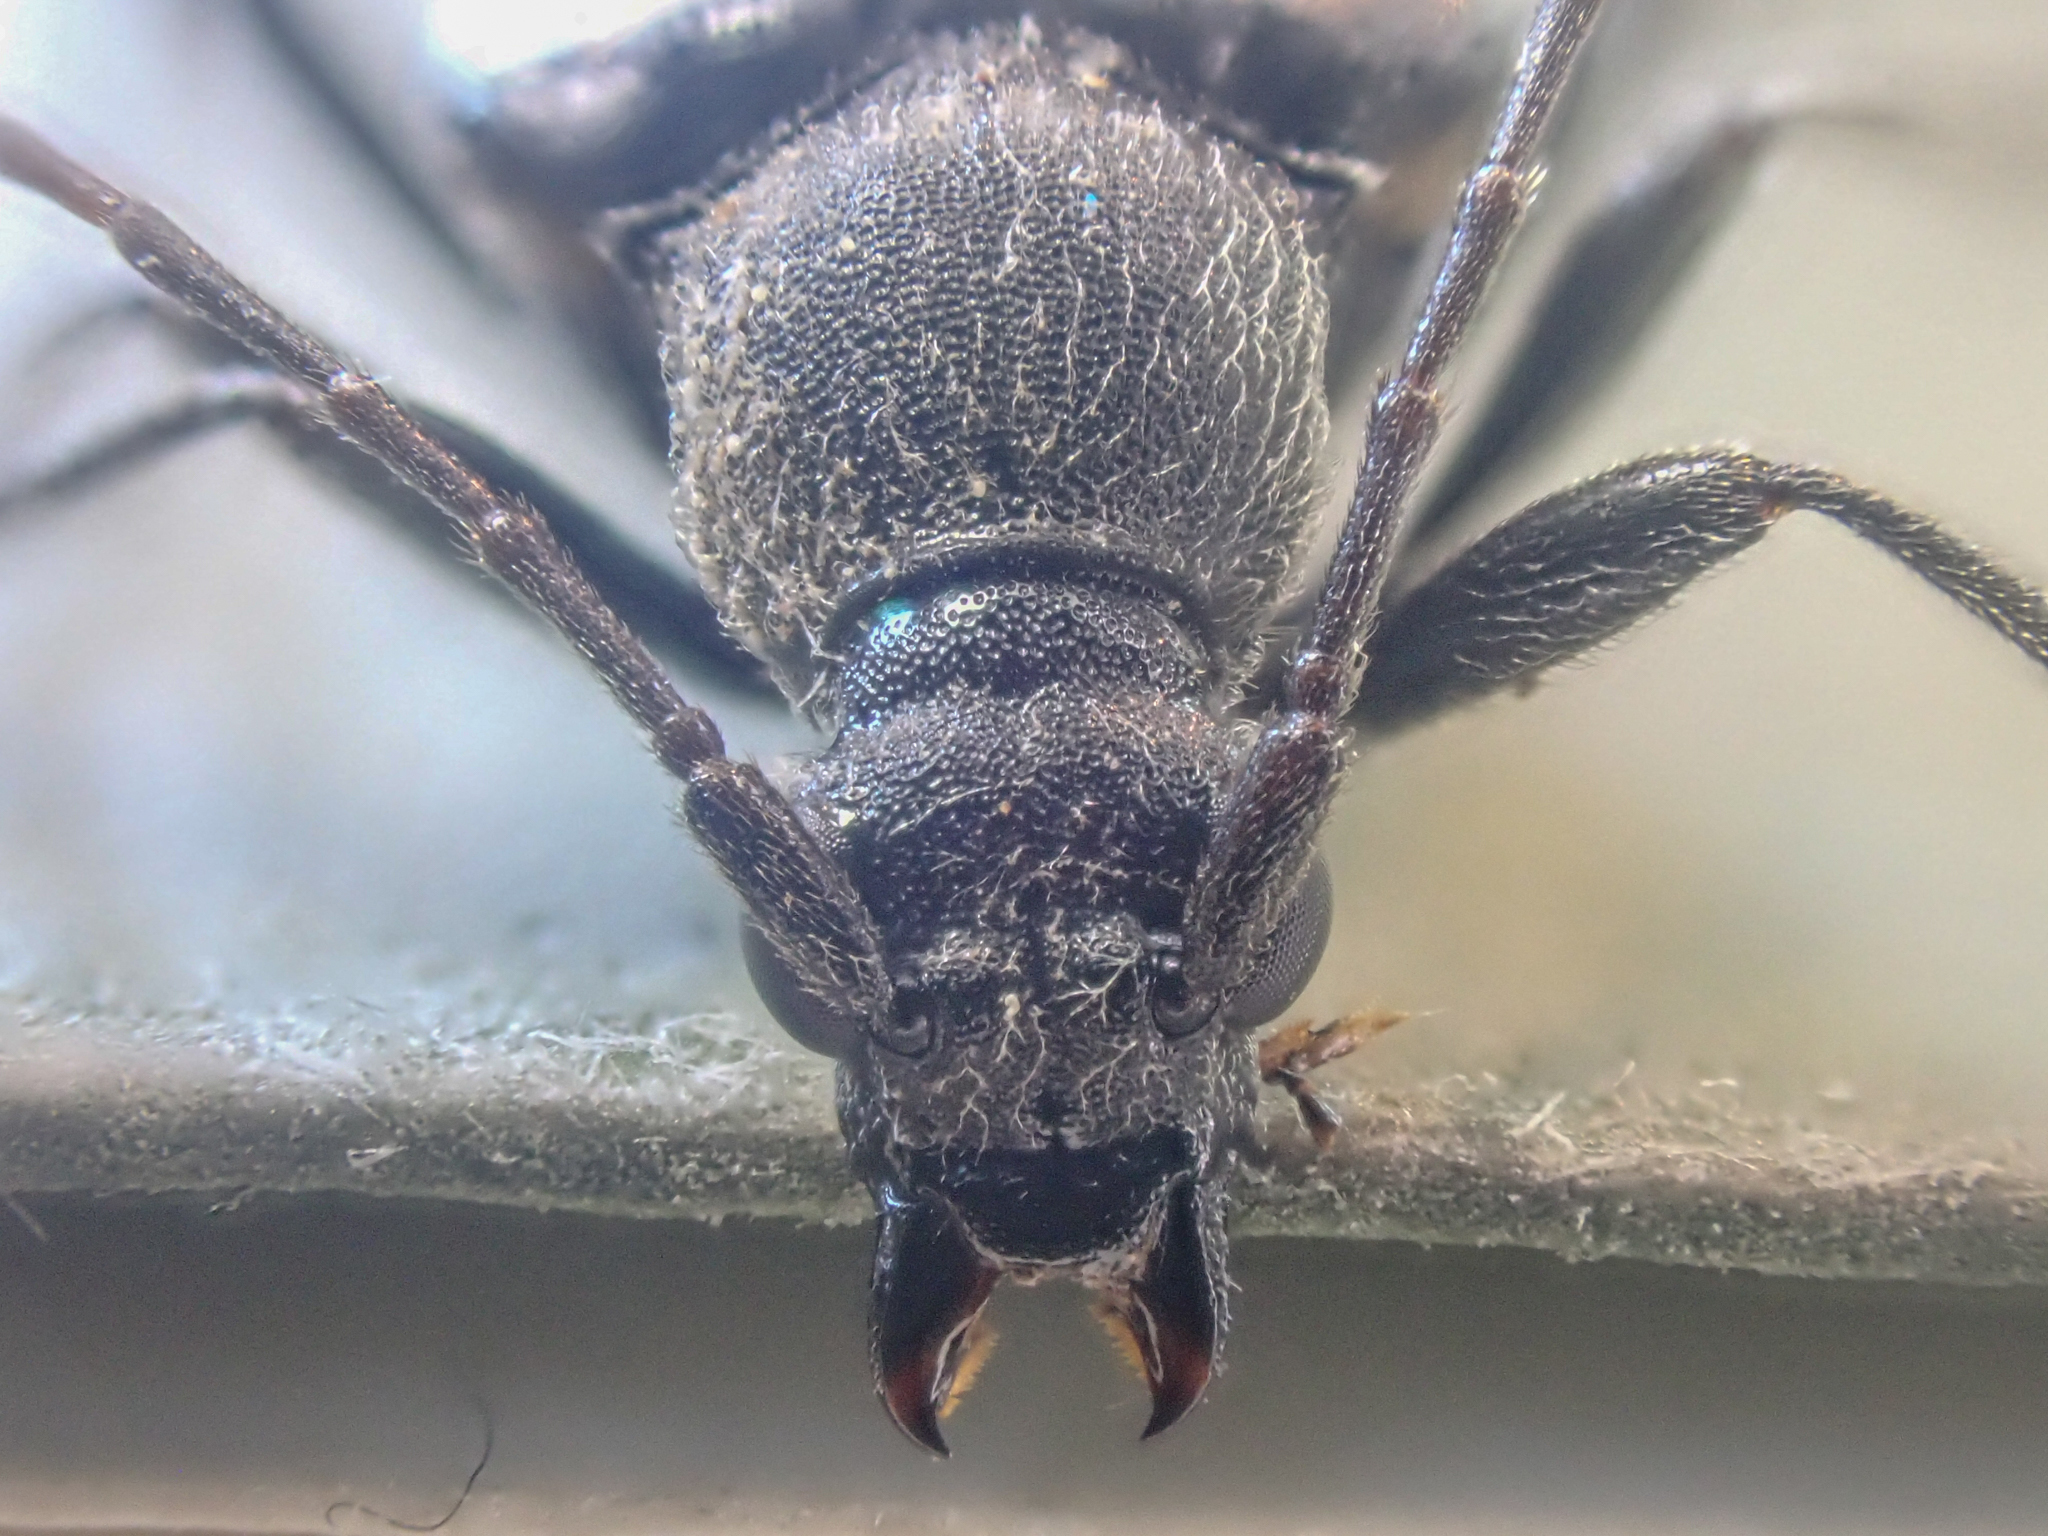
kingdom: Animalia
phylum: Arthropoda
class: Insecta
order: Coleoptera
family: Cerambycidae
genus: Judolia
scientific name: Judolia montivagans
